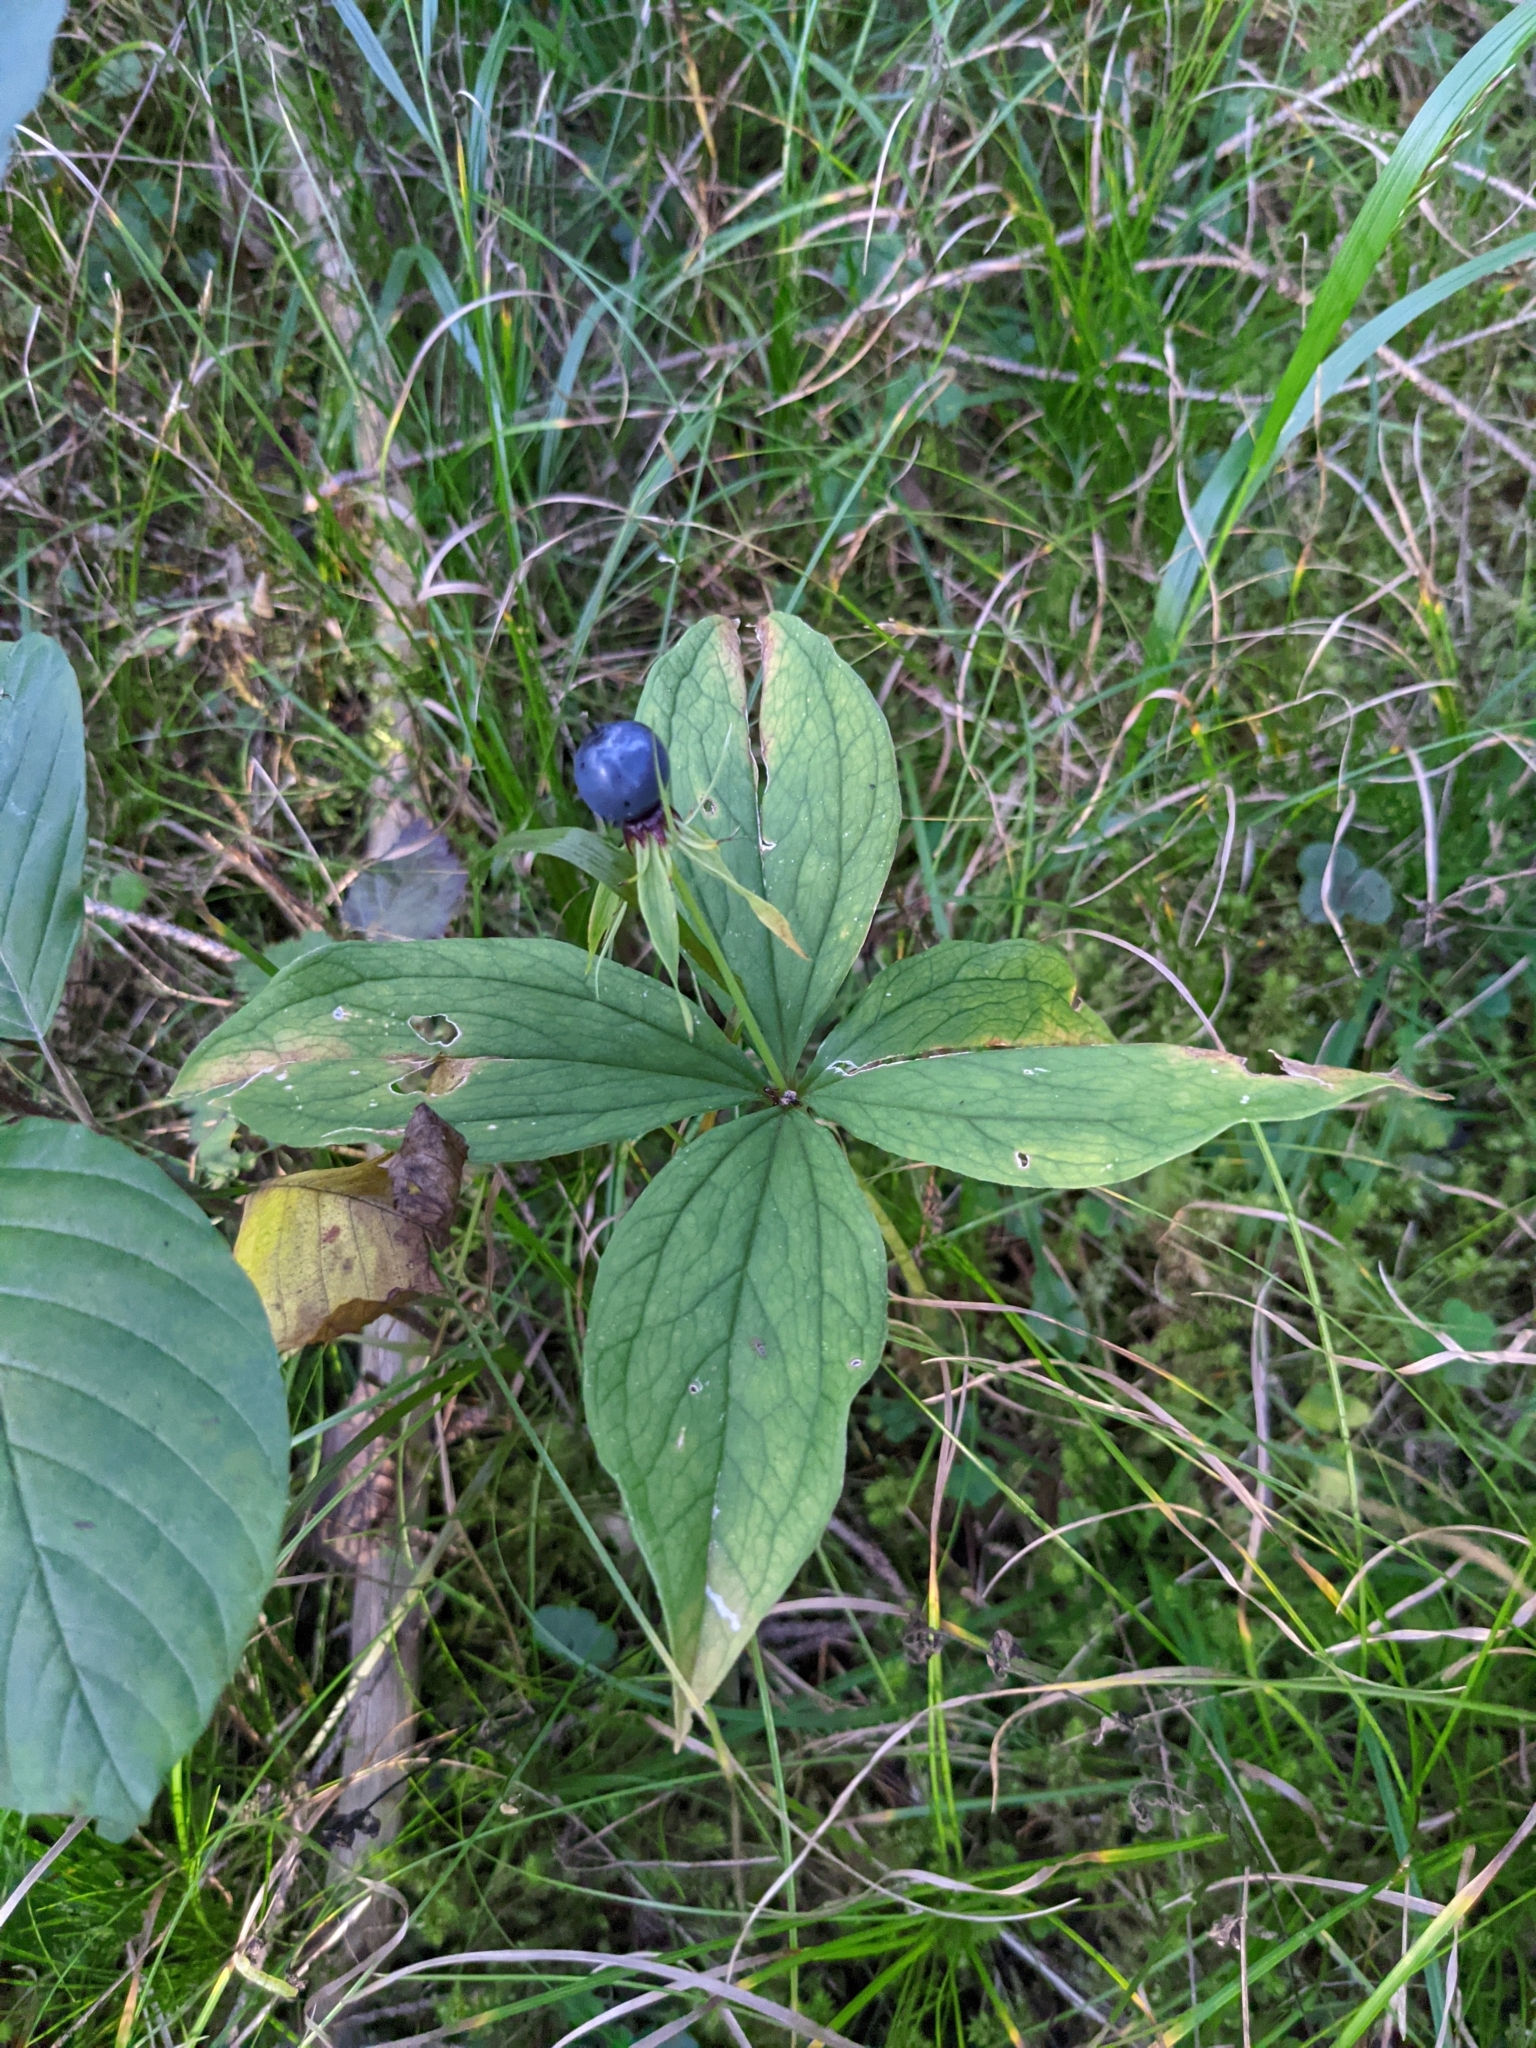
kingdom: Plantae
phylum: Tracheophyta
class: Liliopsida
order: Liliales
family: Melanthiaceae
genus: Paris
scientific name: Paris quadrifolia
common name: Herb-paris
